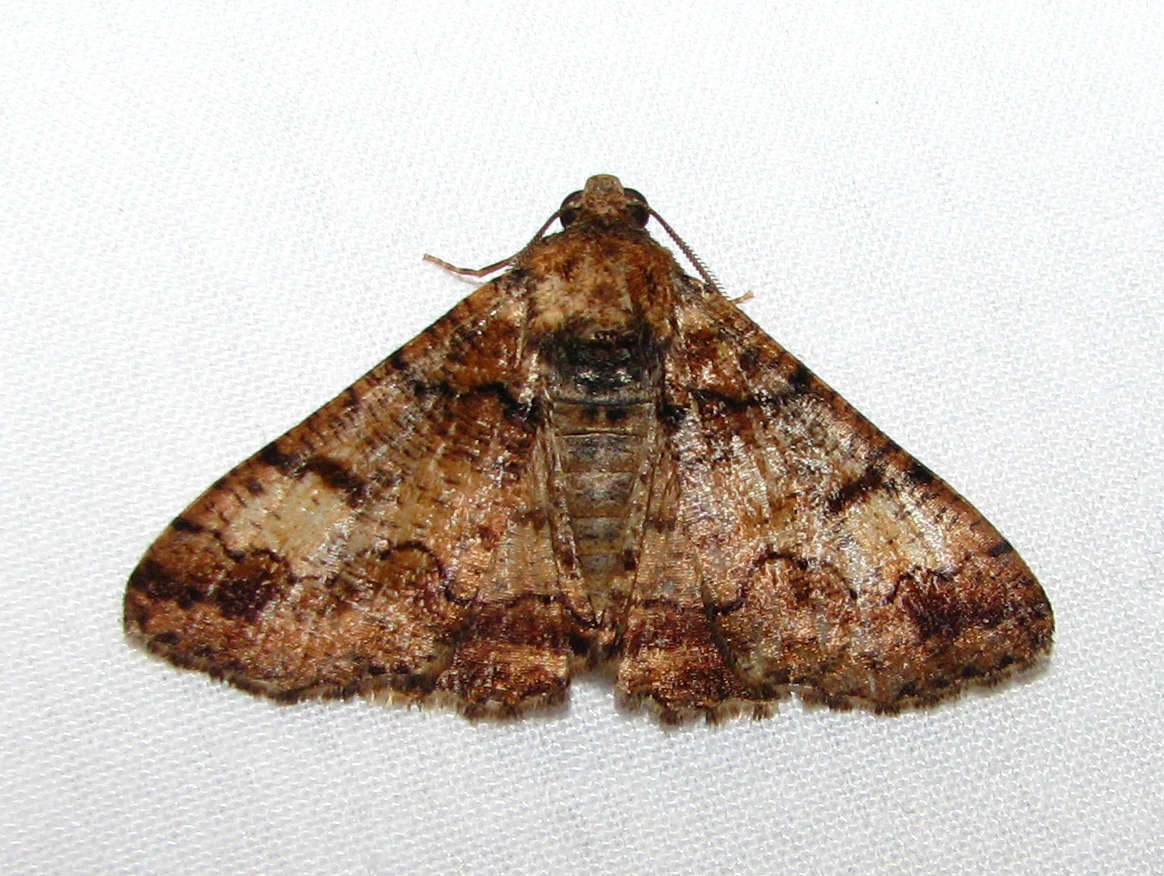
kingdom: Animalia
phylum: Arthropoda
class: Insecta
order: Lepidoptera
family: Geometridae
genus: Cryphaea
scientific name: Cryphaea xylina
